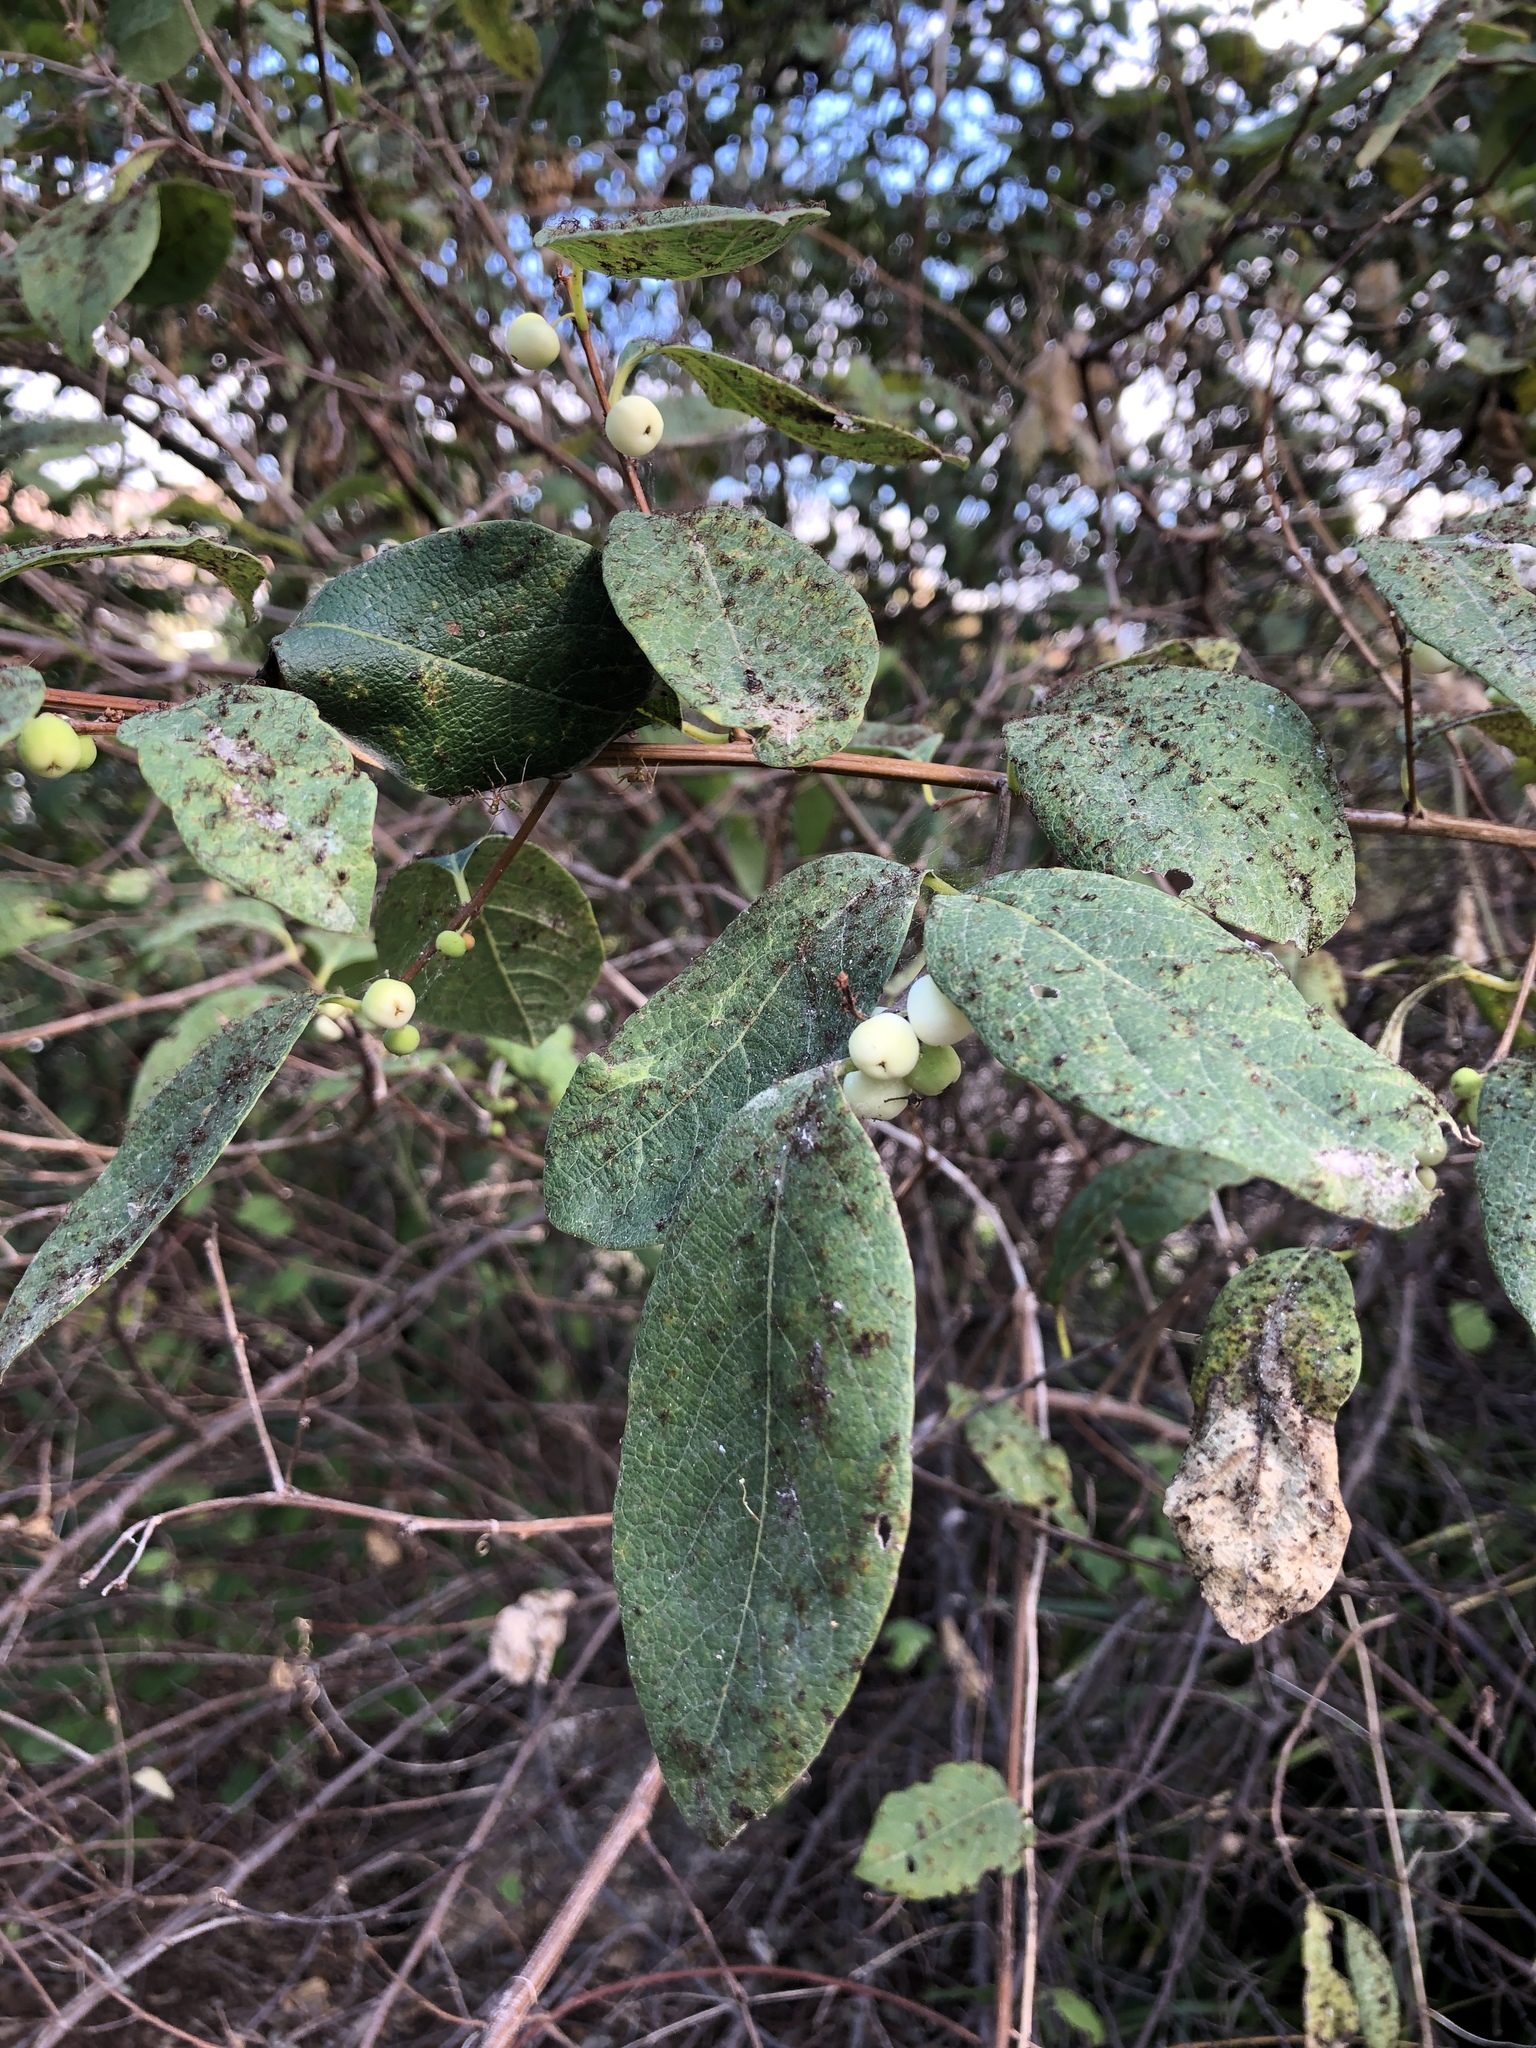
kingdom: Plantae
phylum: Tracheophyta
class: Magnoliopsida
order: Malpighiales
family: Phyllanthaceae
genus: Flueggea
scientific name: Flueggea virosa
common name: Common bushweed
